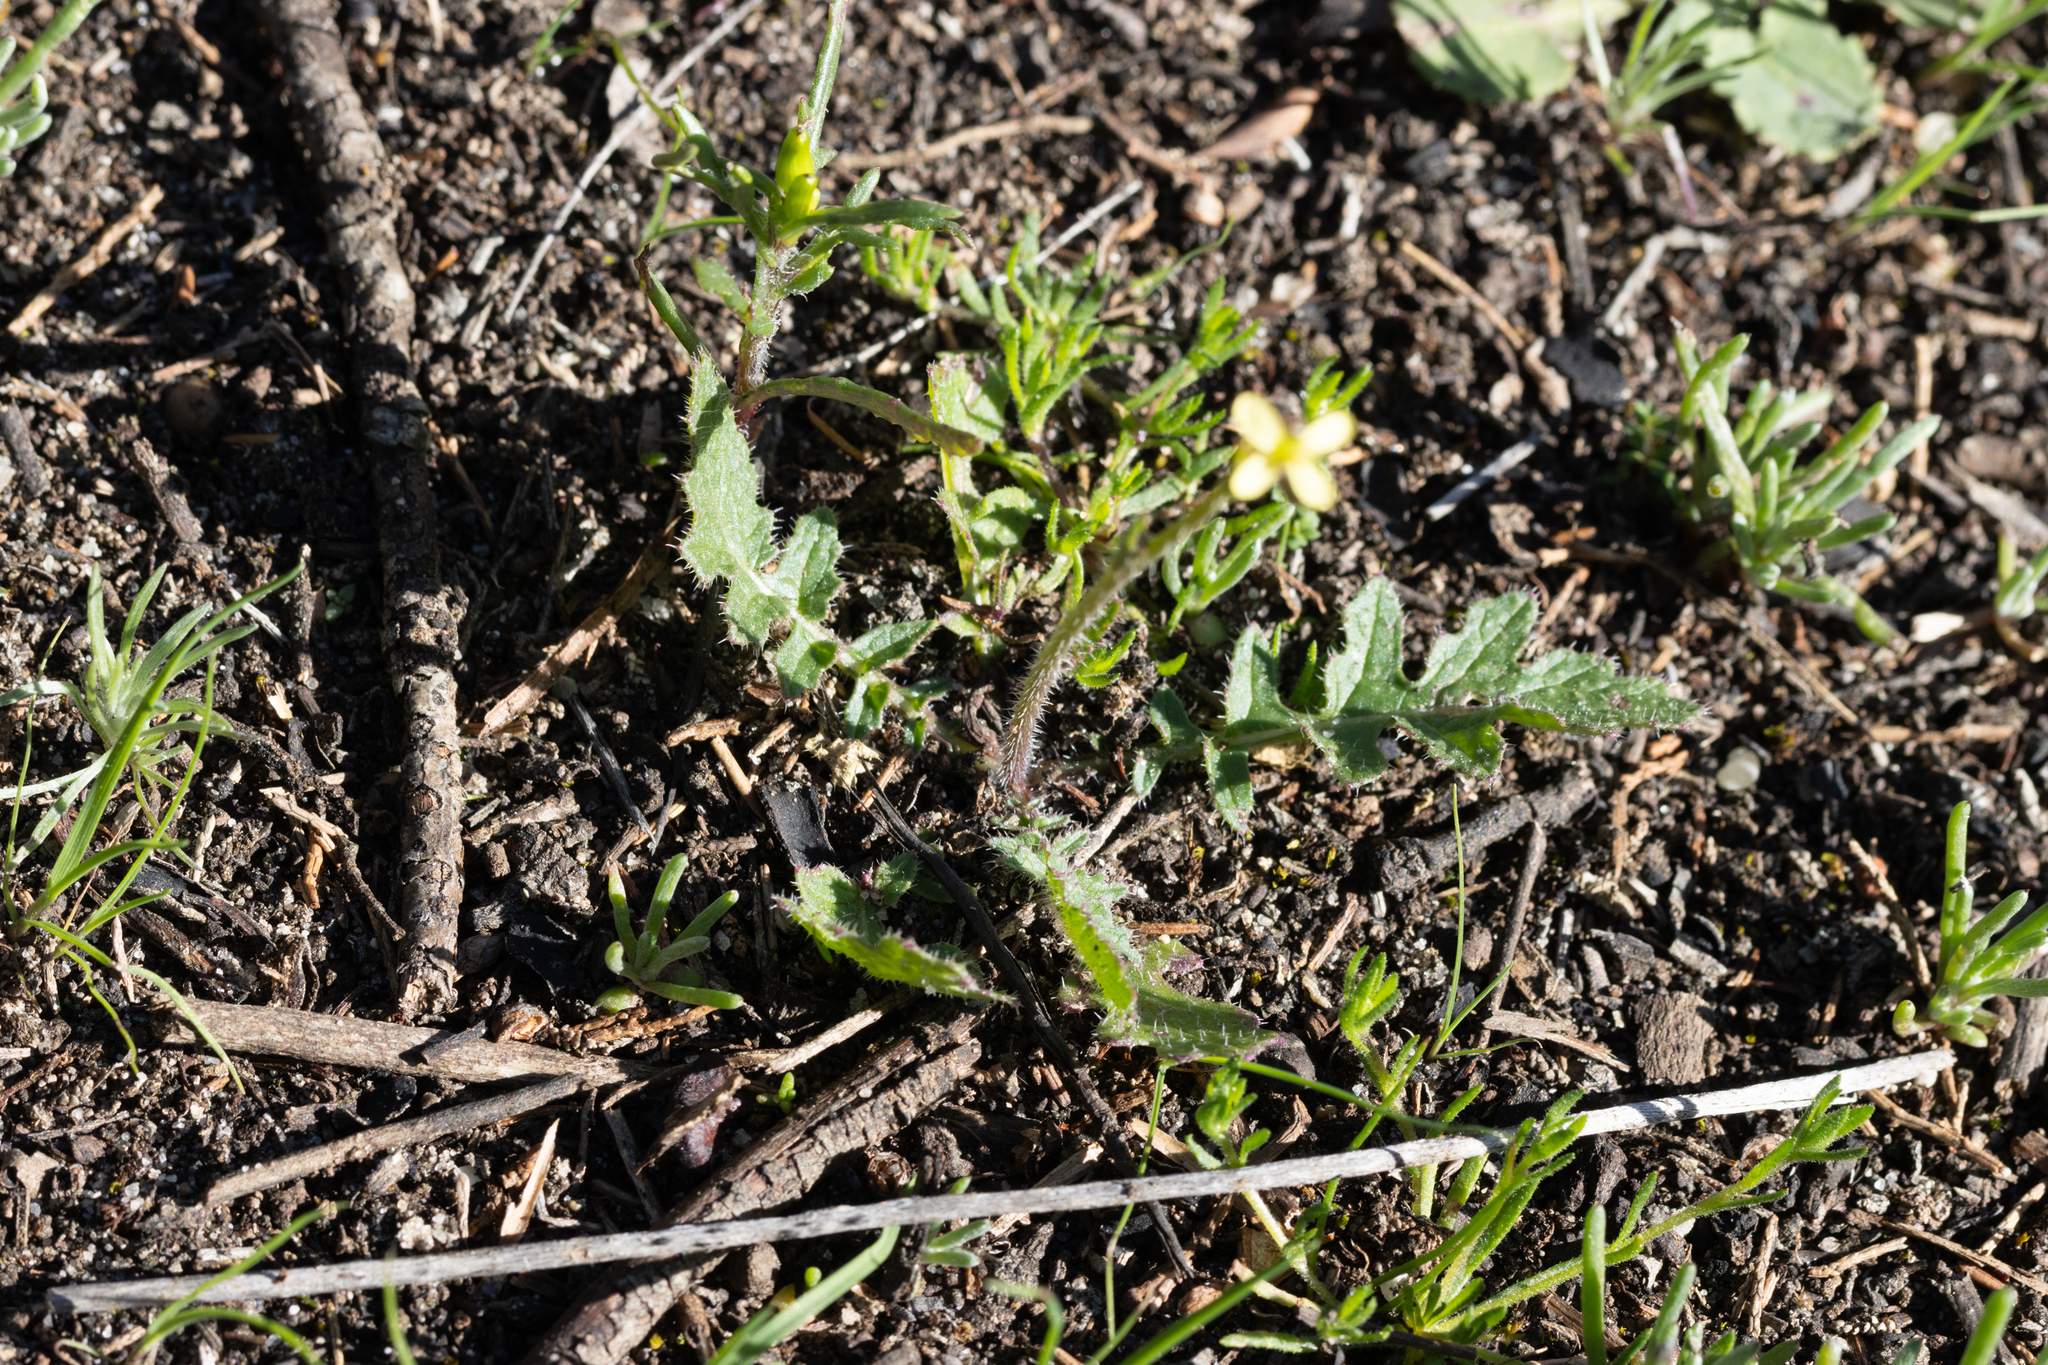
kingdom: Plantae
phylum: Tracheophyta
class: Magnoliopsida
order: Brassicales
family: Brassicaceae
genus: Brassica
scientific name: Brassica tournefortii
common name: Pale cabbage
